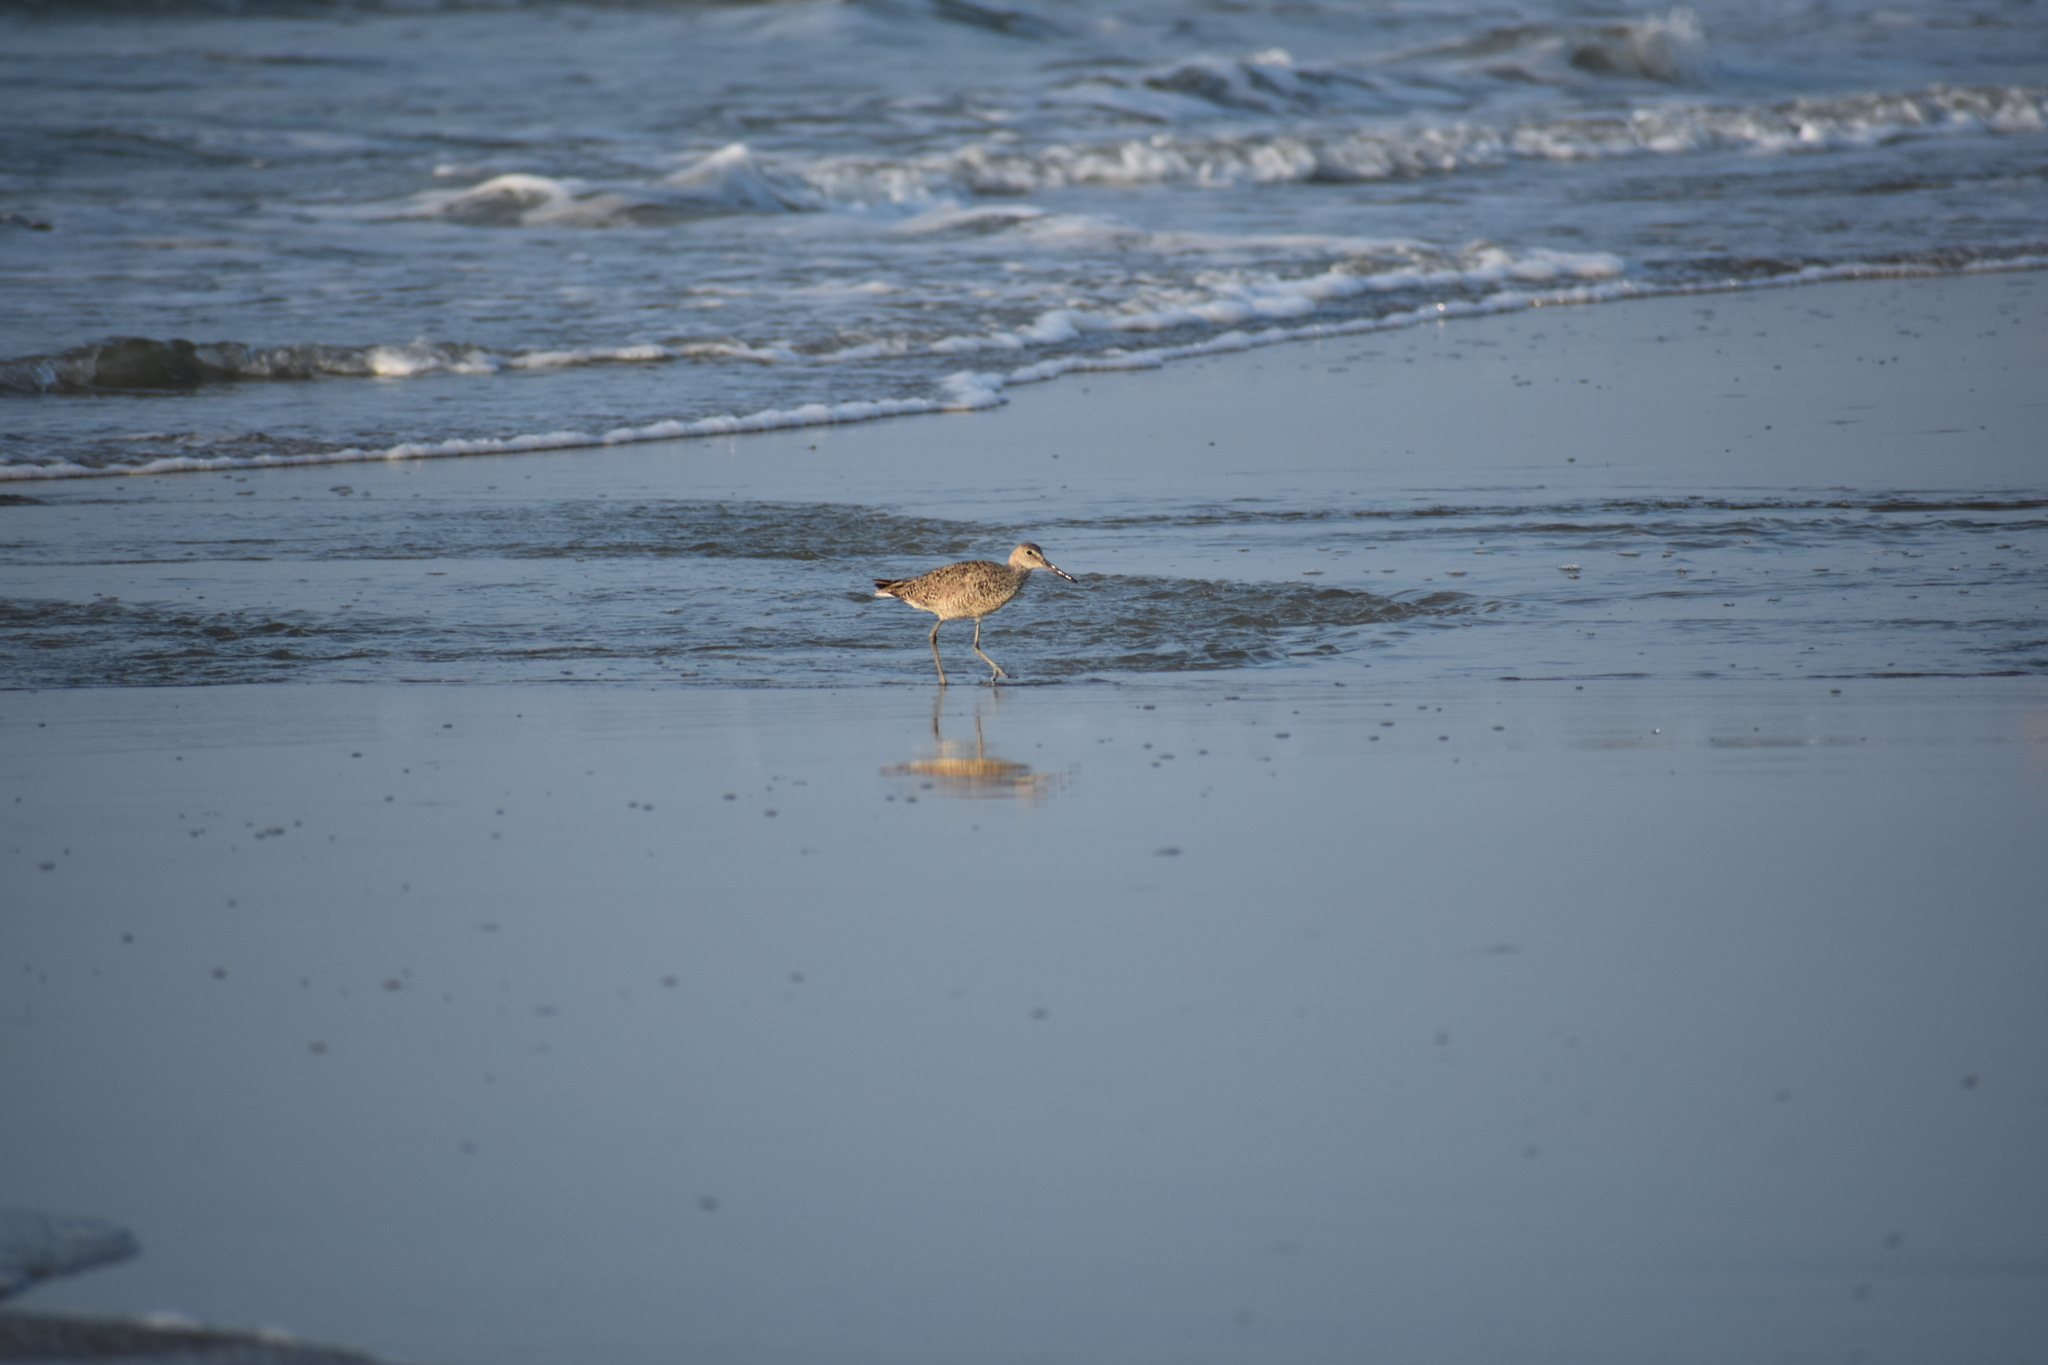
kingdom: Animalia
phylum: Chordata
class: Aves
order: Charadriiformes
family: Scolopacidae
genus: Tringa
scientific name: Tringa semipalmata
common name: Willet
